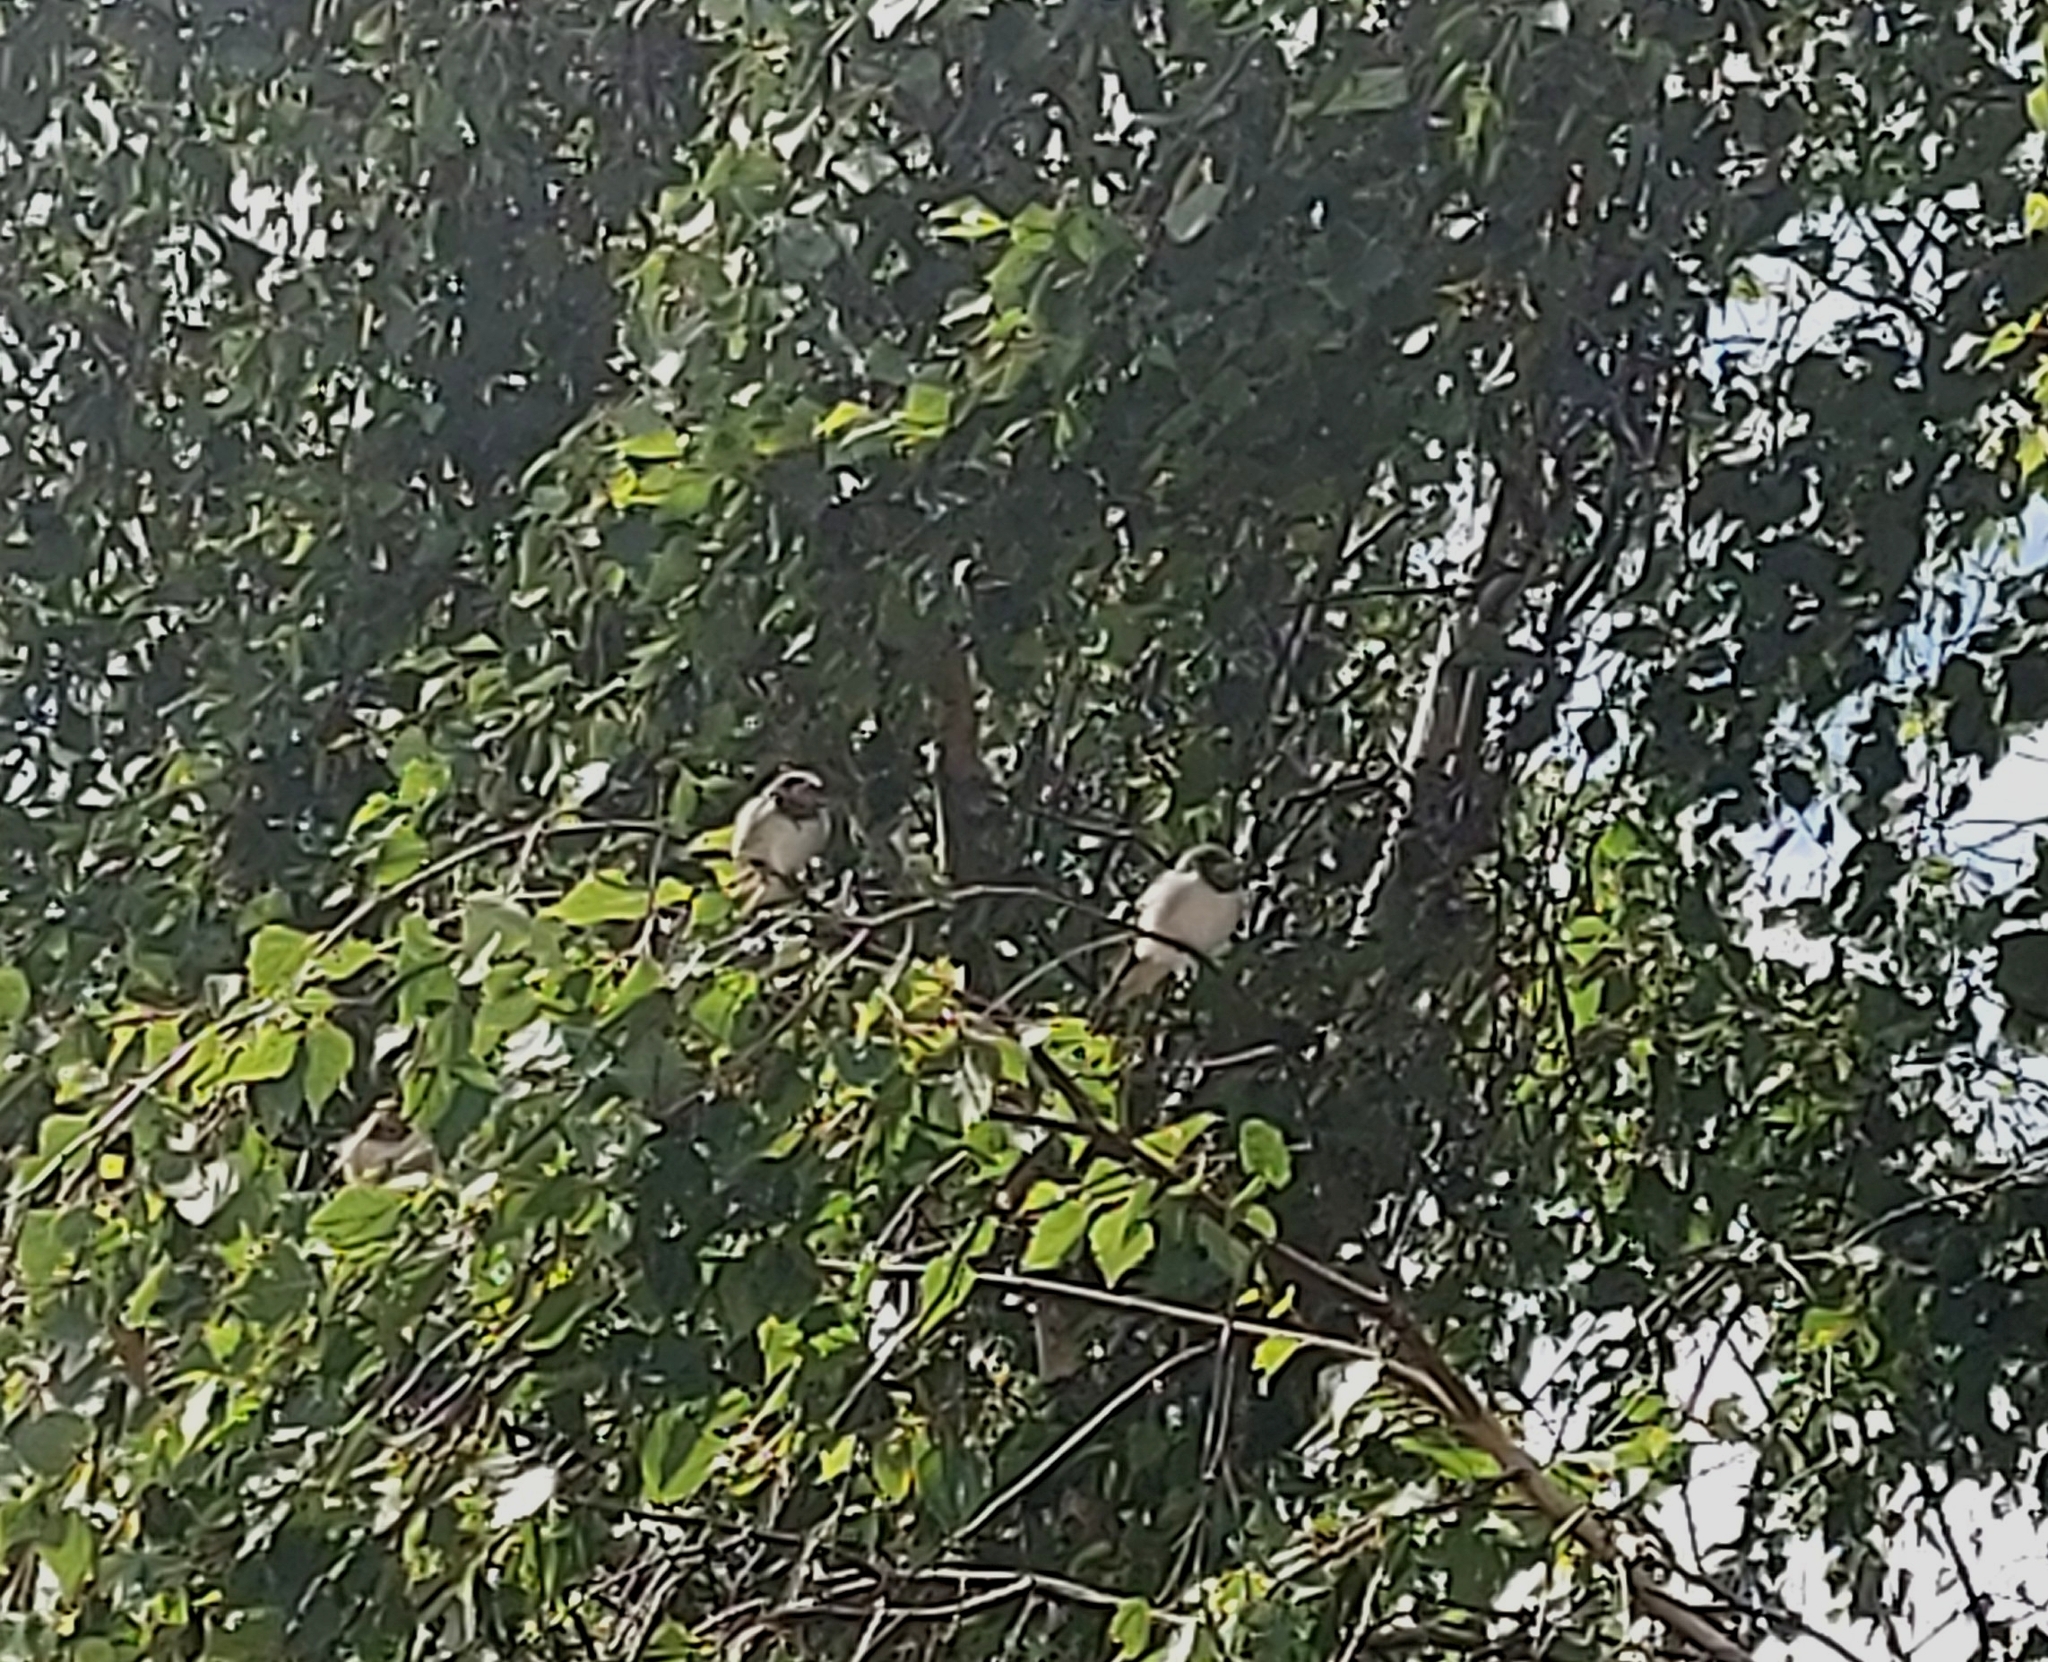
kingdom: Animalia
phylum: Chordata
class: Aves
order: Passeriformes
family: Hirundinidae
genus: Hirundo
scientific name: Hirundo rustica
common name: Barn swallow
